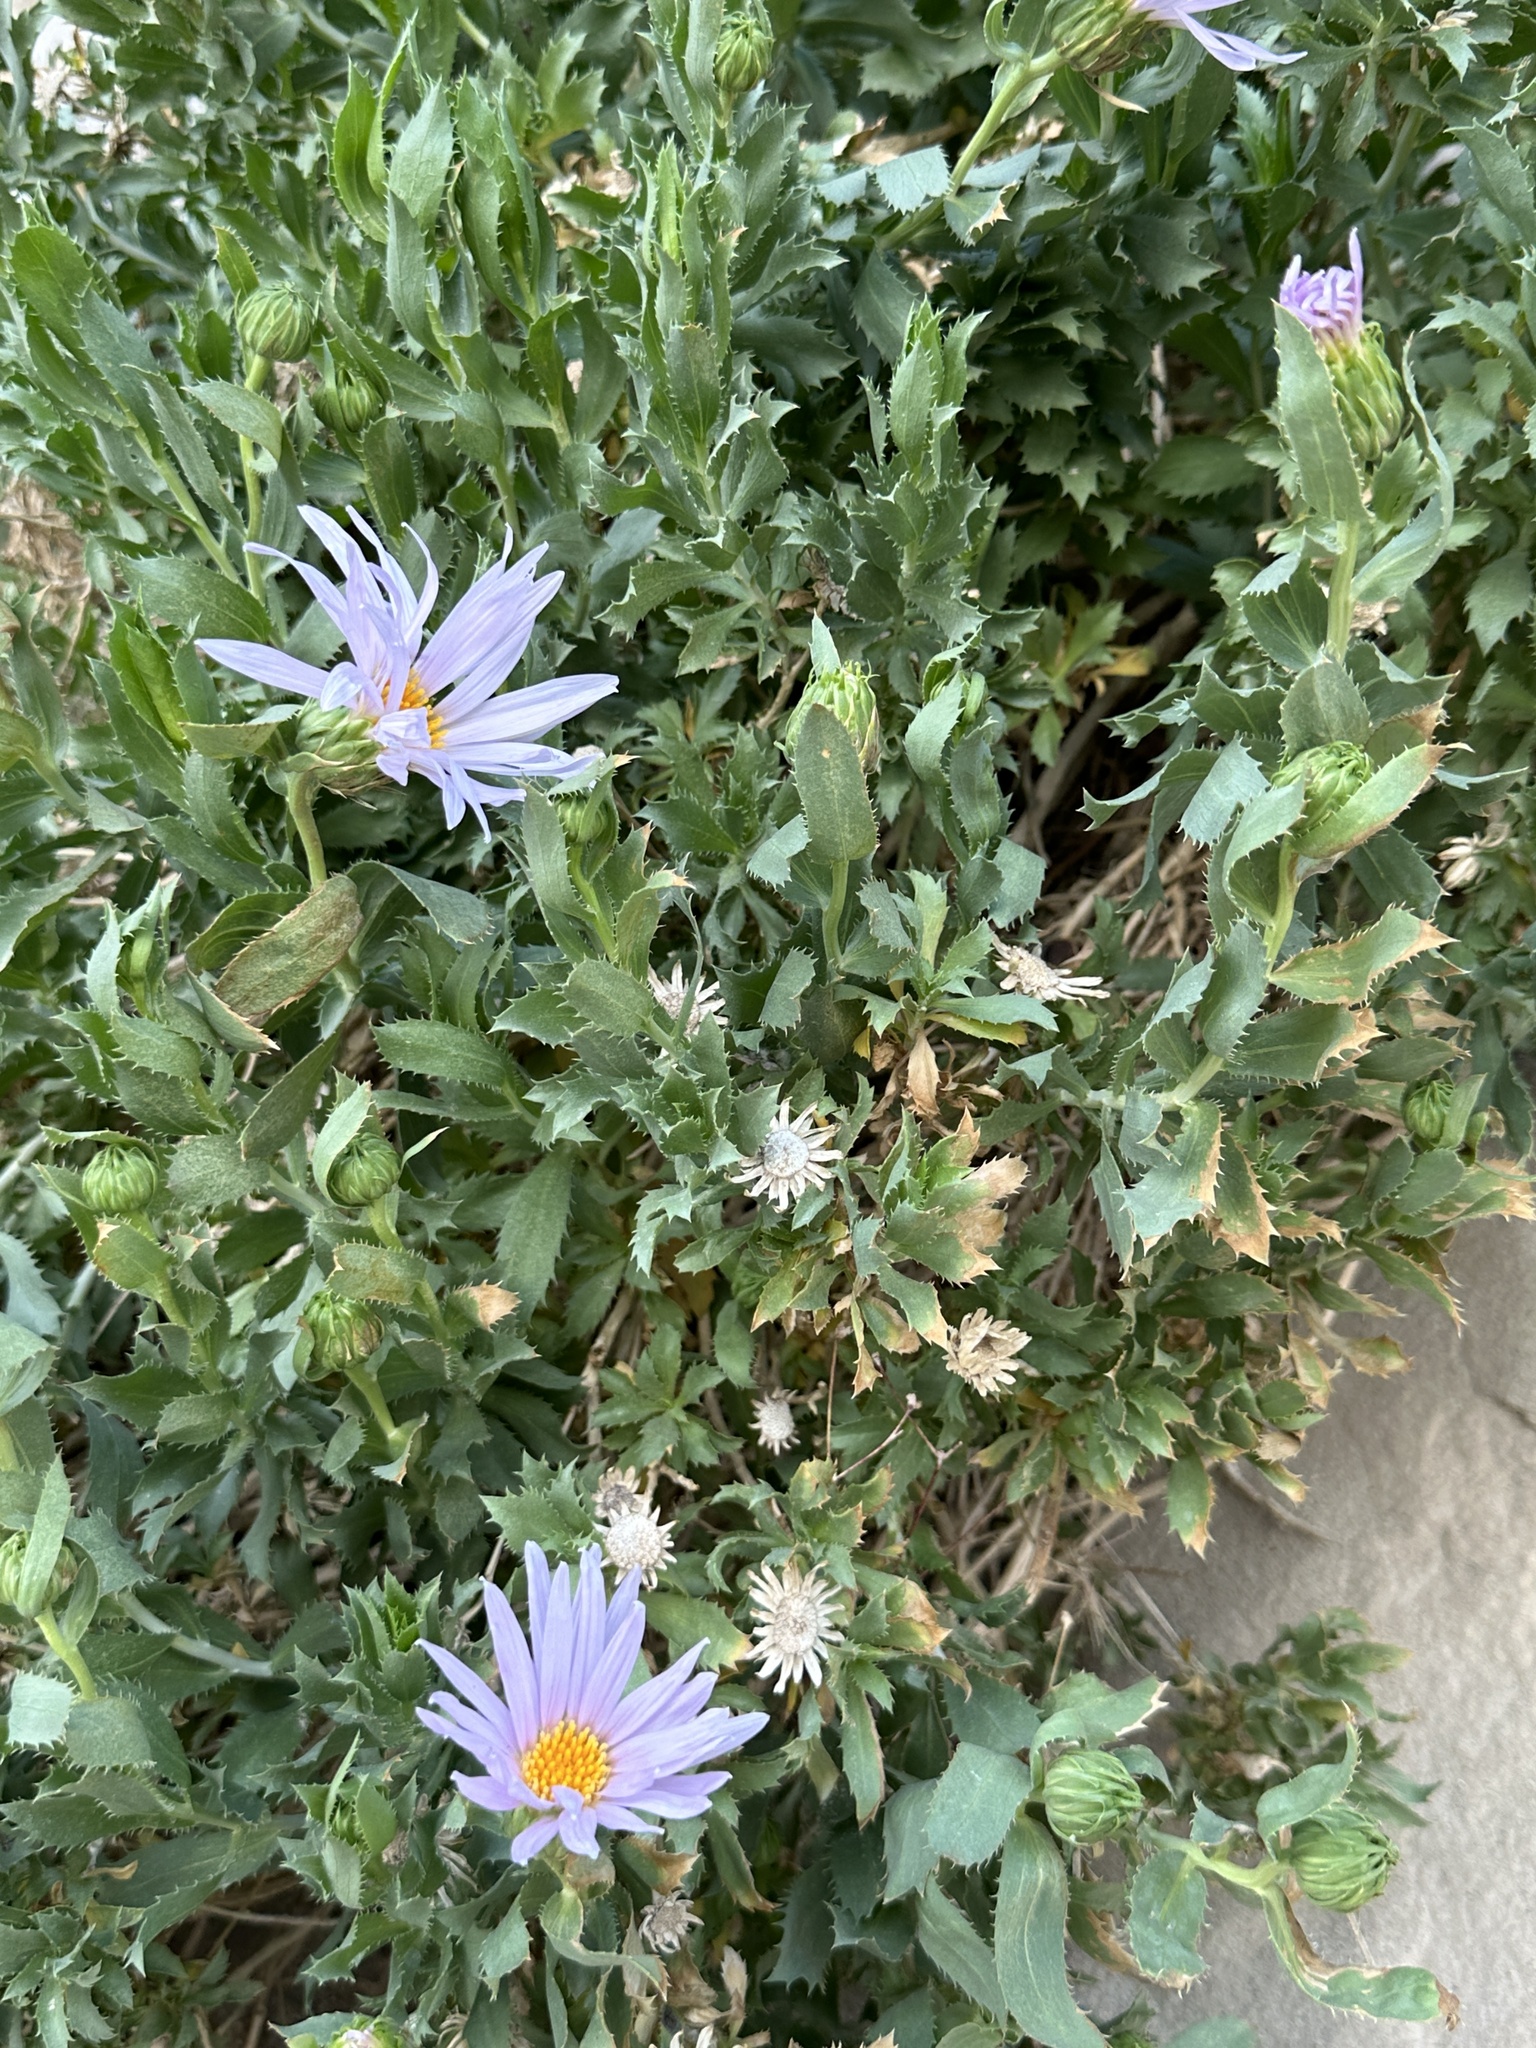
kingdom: Plantae
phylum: Tracheophyta
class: Magnoliopsida
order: Asterales
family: Asteraceae
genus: Xylorhiza
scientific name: Xylorhiza orcuttii
